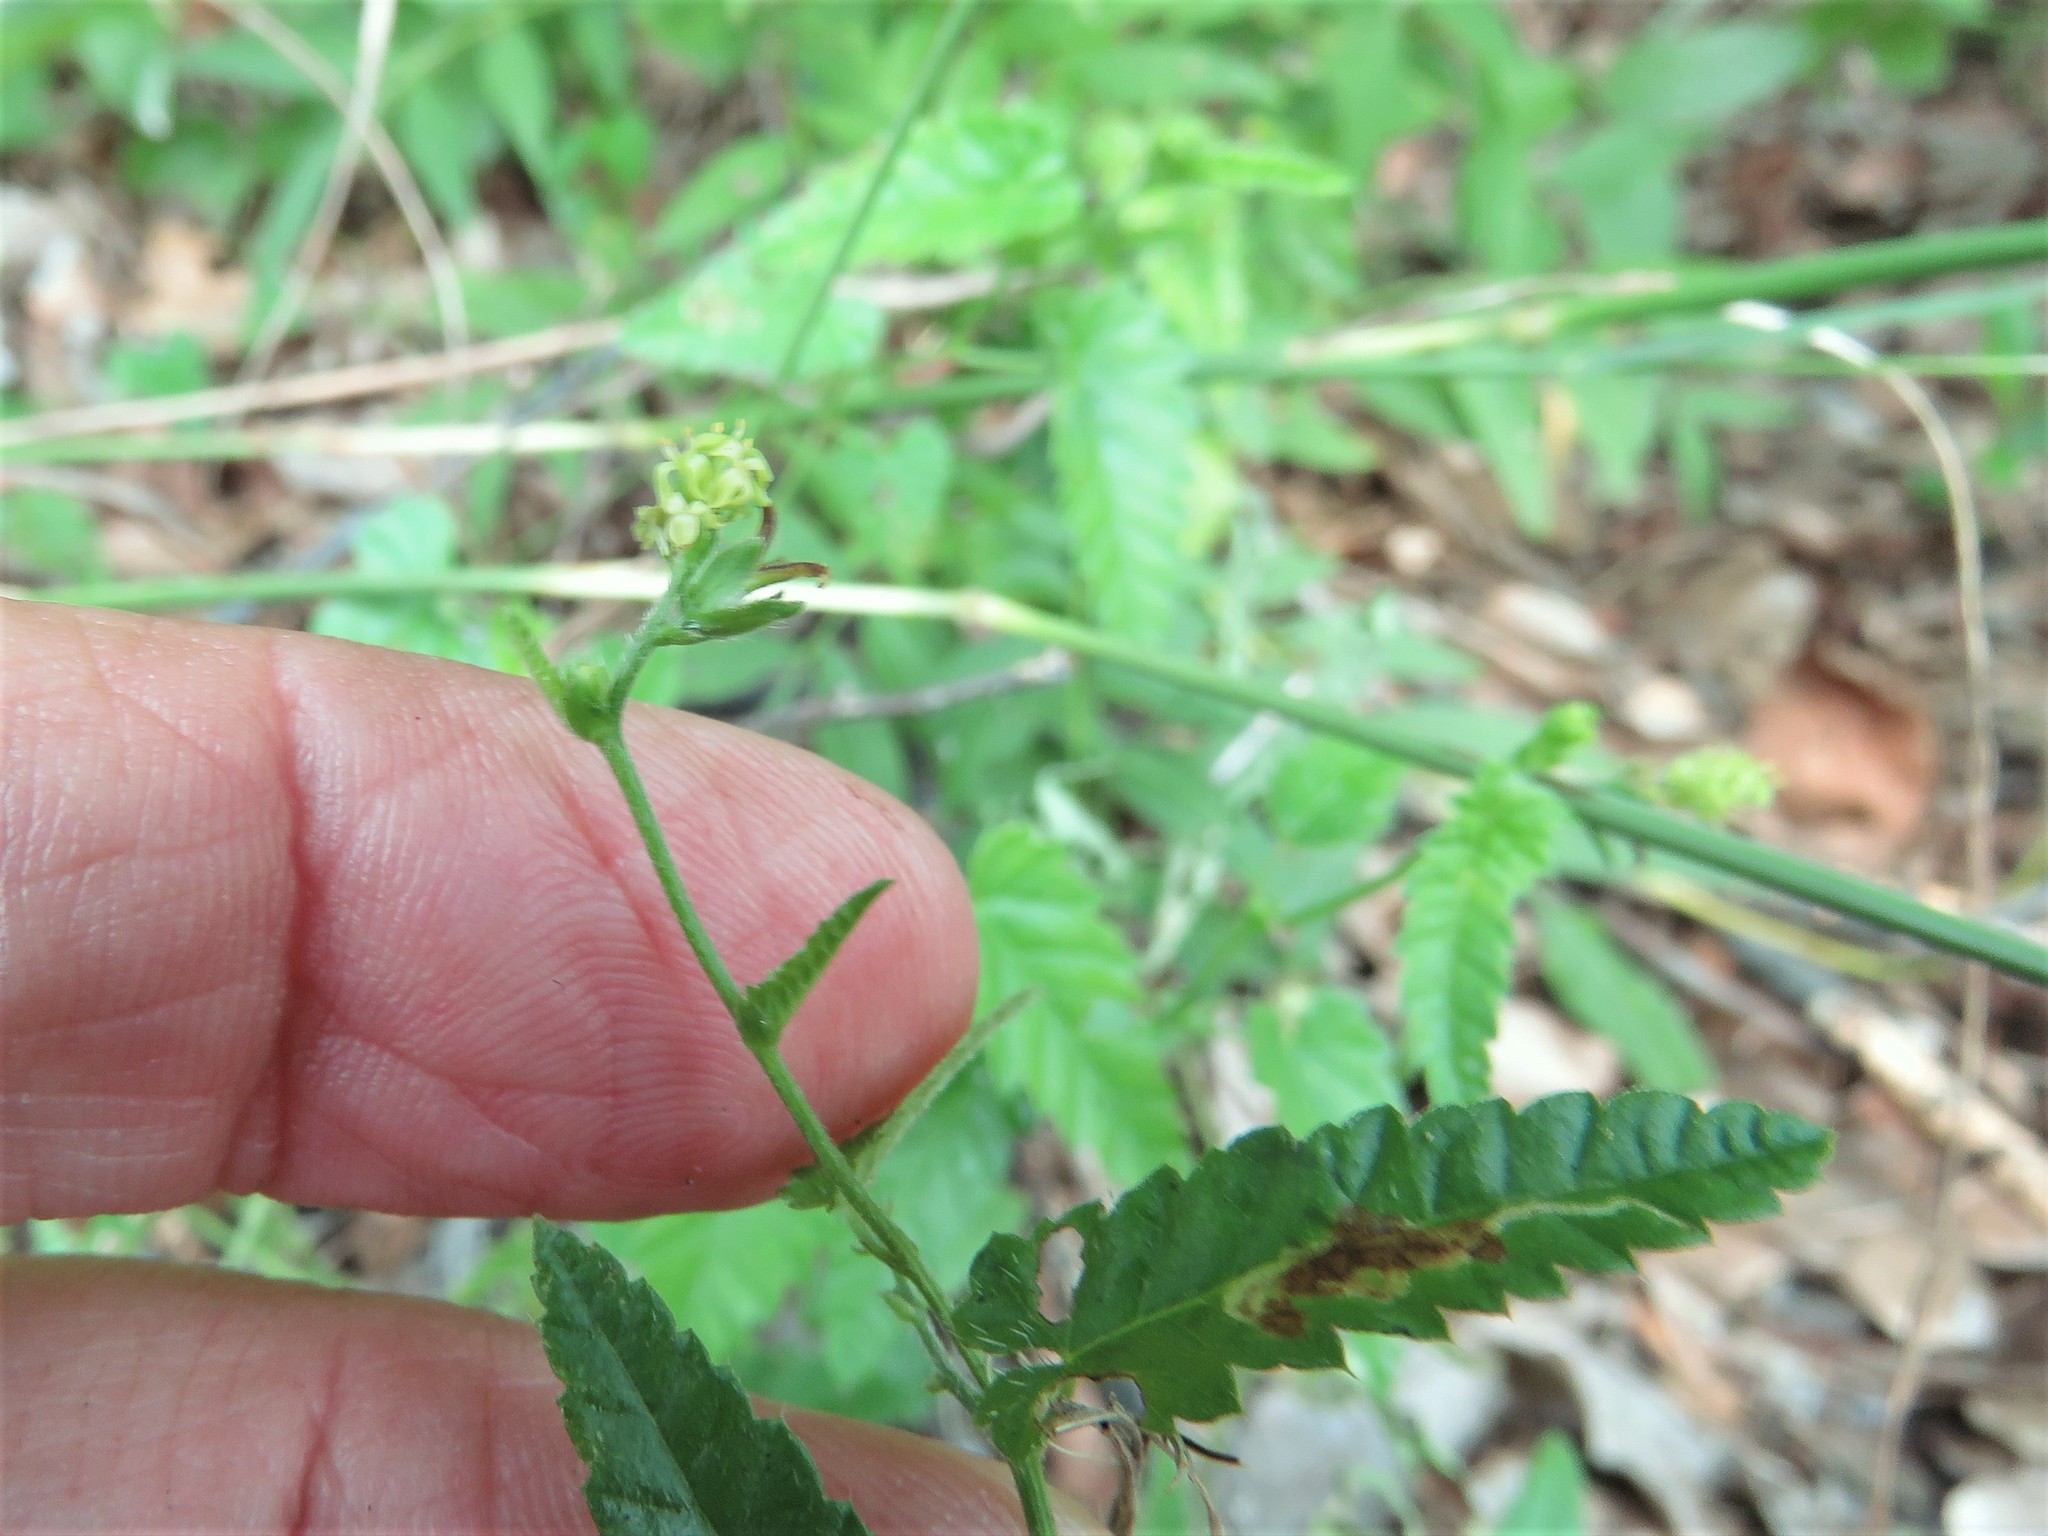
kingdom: Plantae
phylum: Tracheophyta
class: Magnoliopsida
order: Malpighiales
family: Euphorbiaceae
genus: Tragia
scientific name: Tragia brevispica
